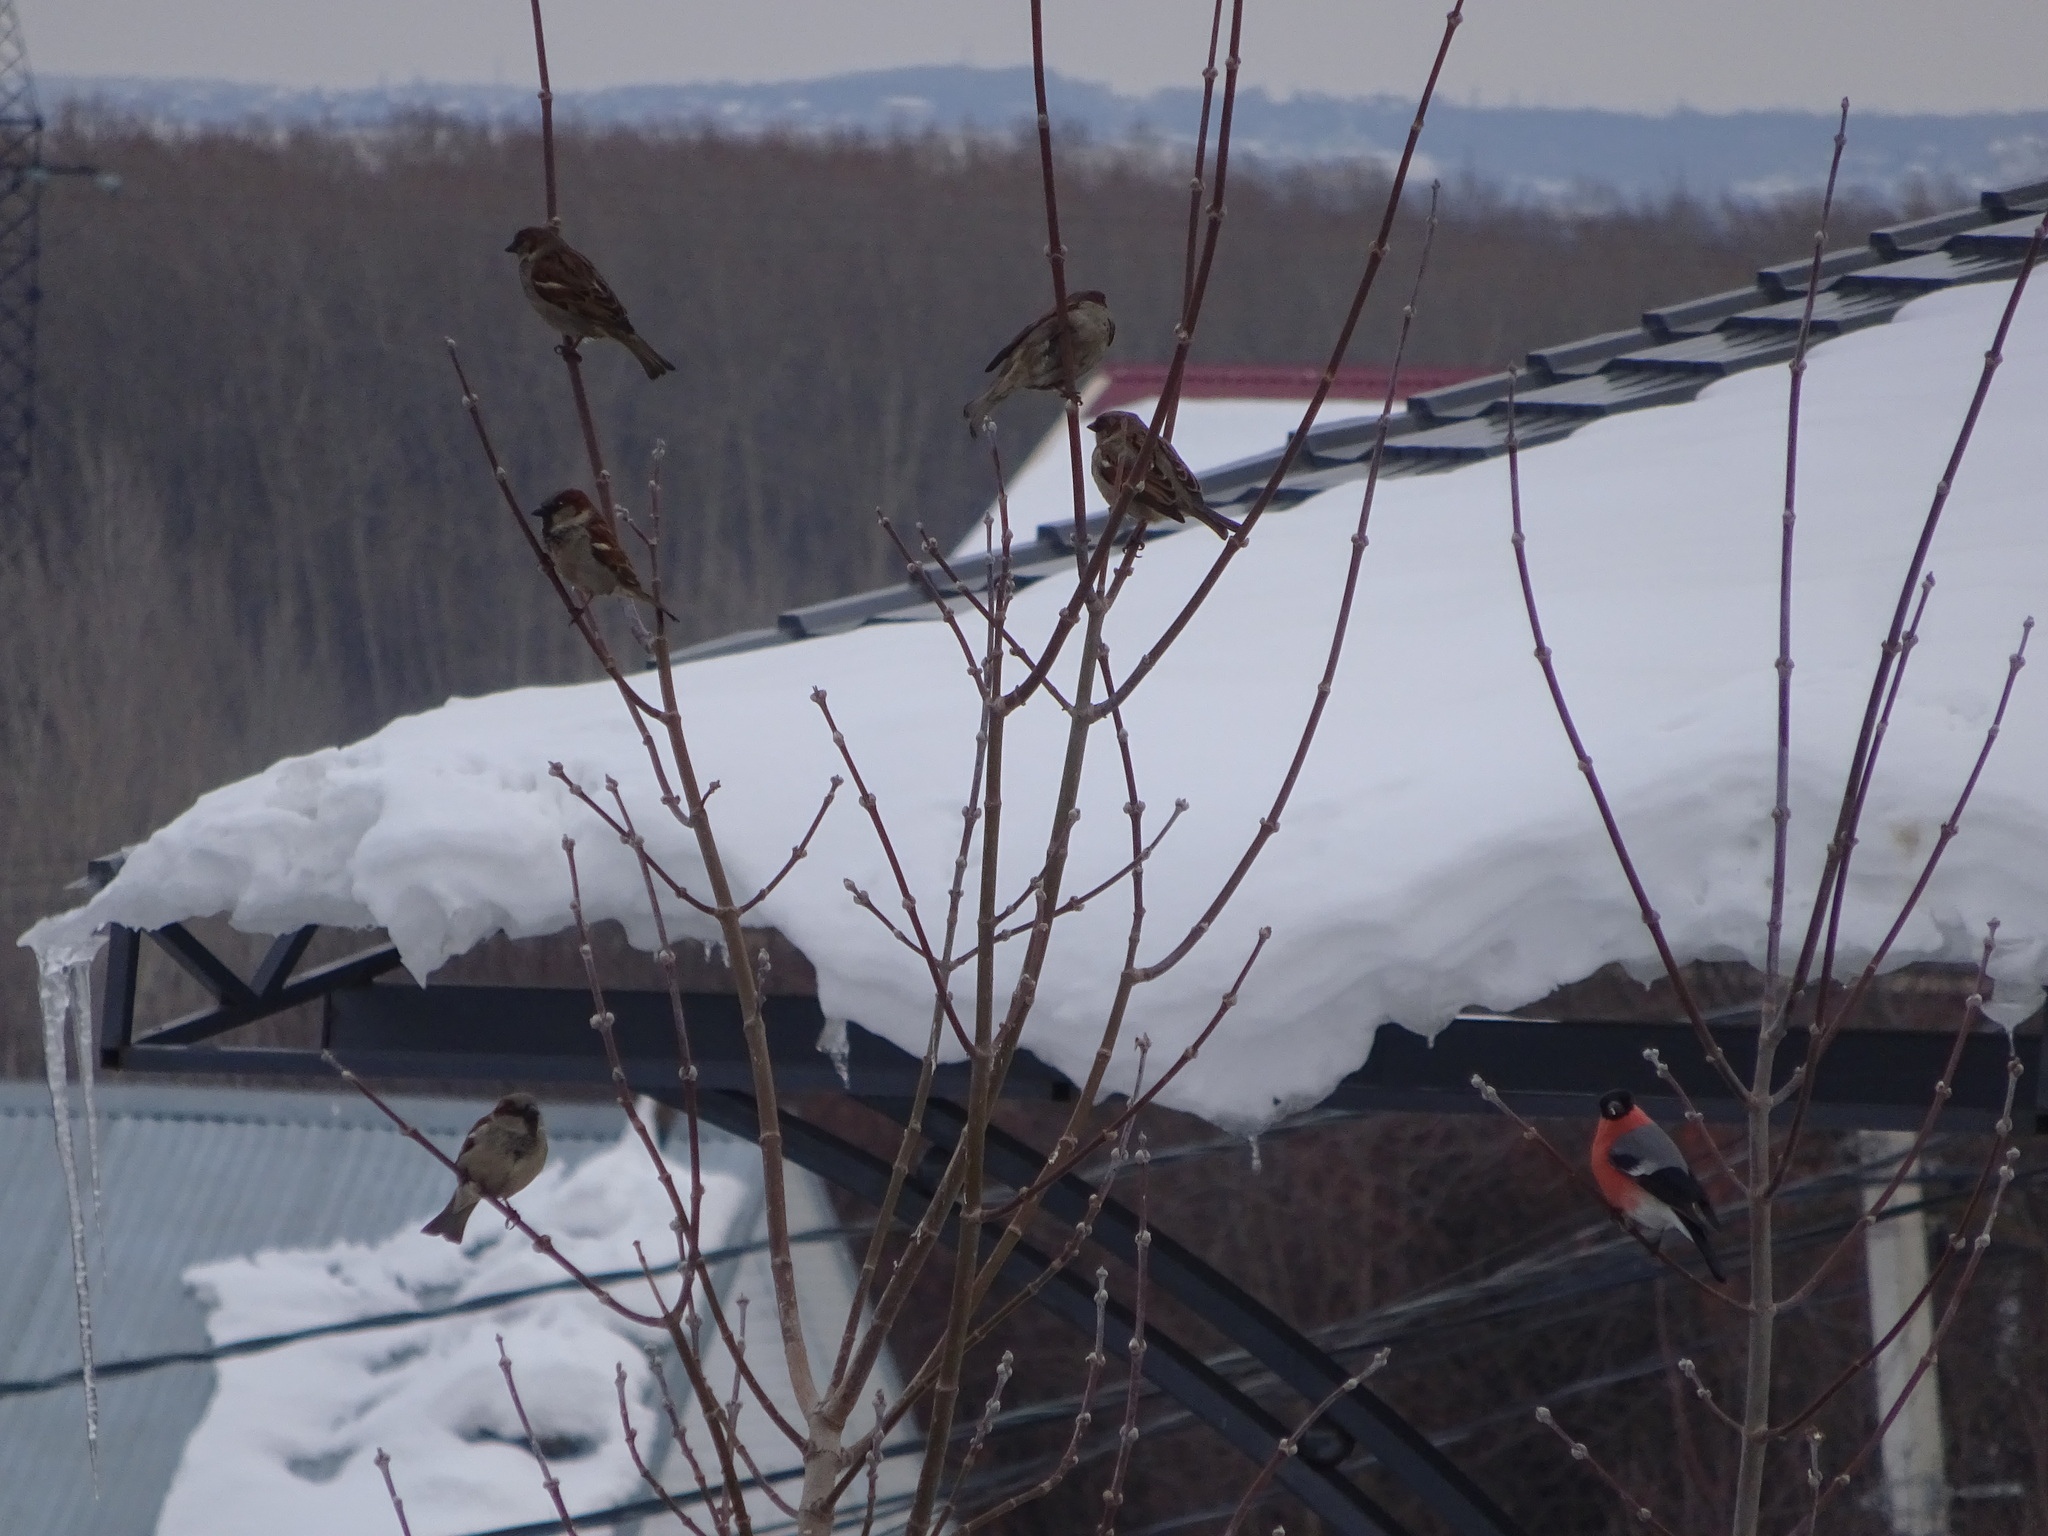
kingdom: Animalia
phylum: Chordata
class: Aves
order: Passeriformes
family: Passeridae
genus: Passer
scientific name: Passer domesticus
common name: House sparrow
